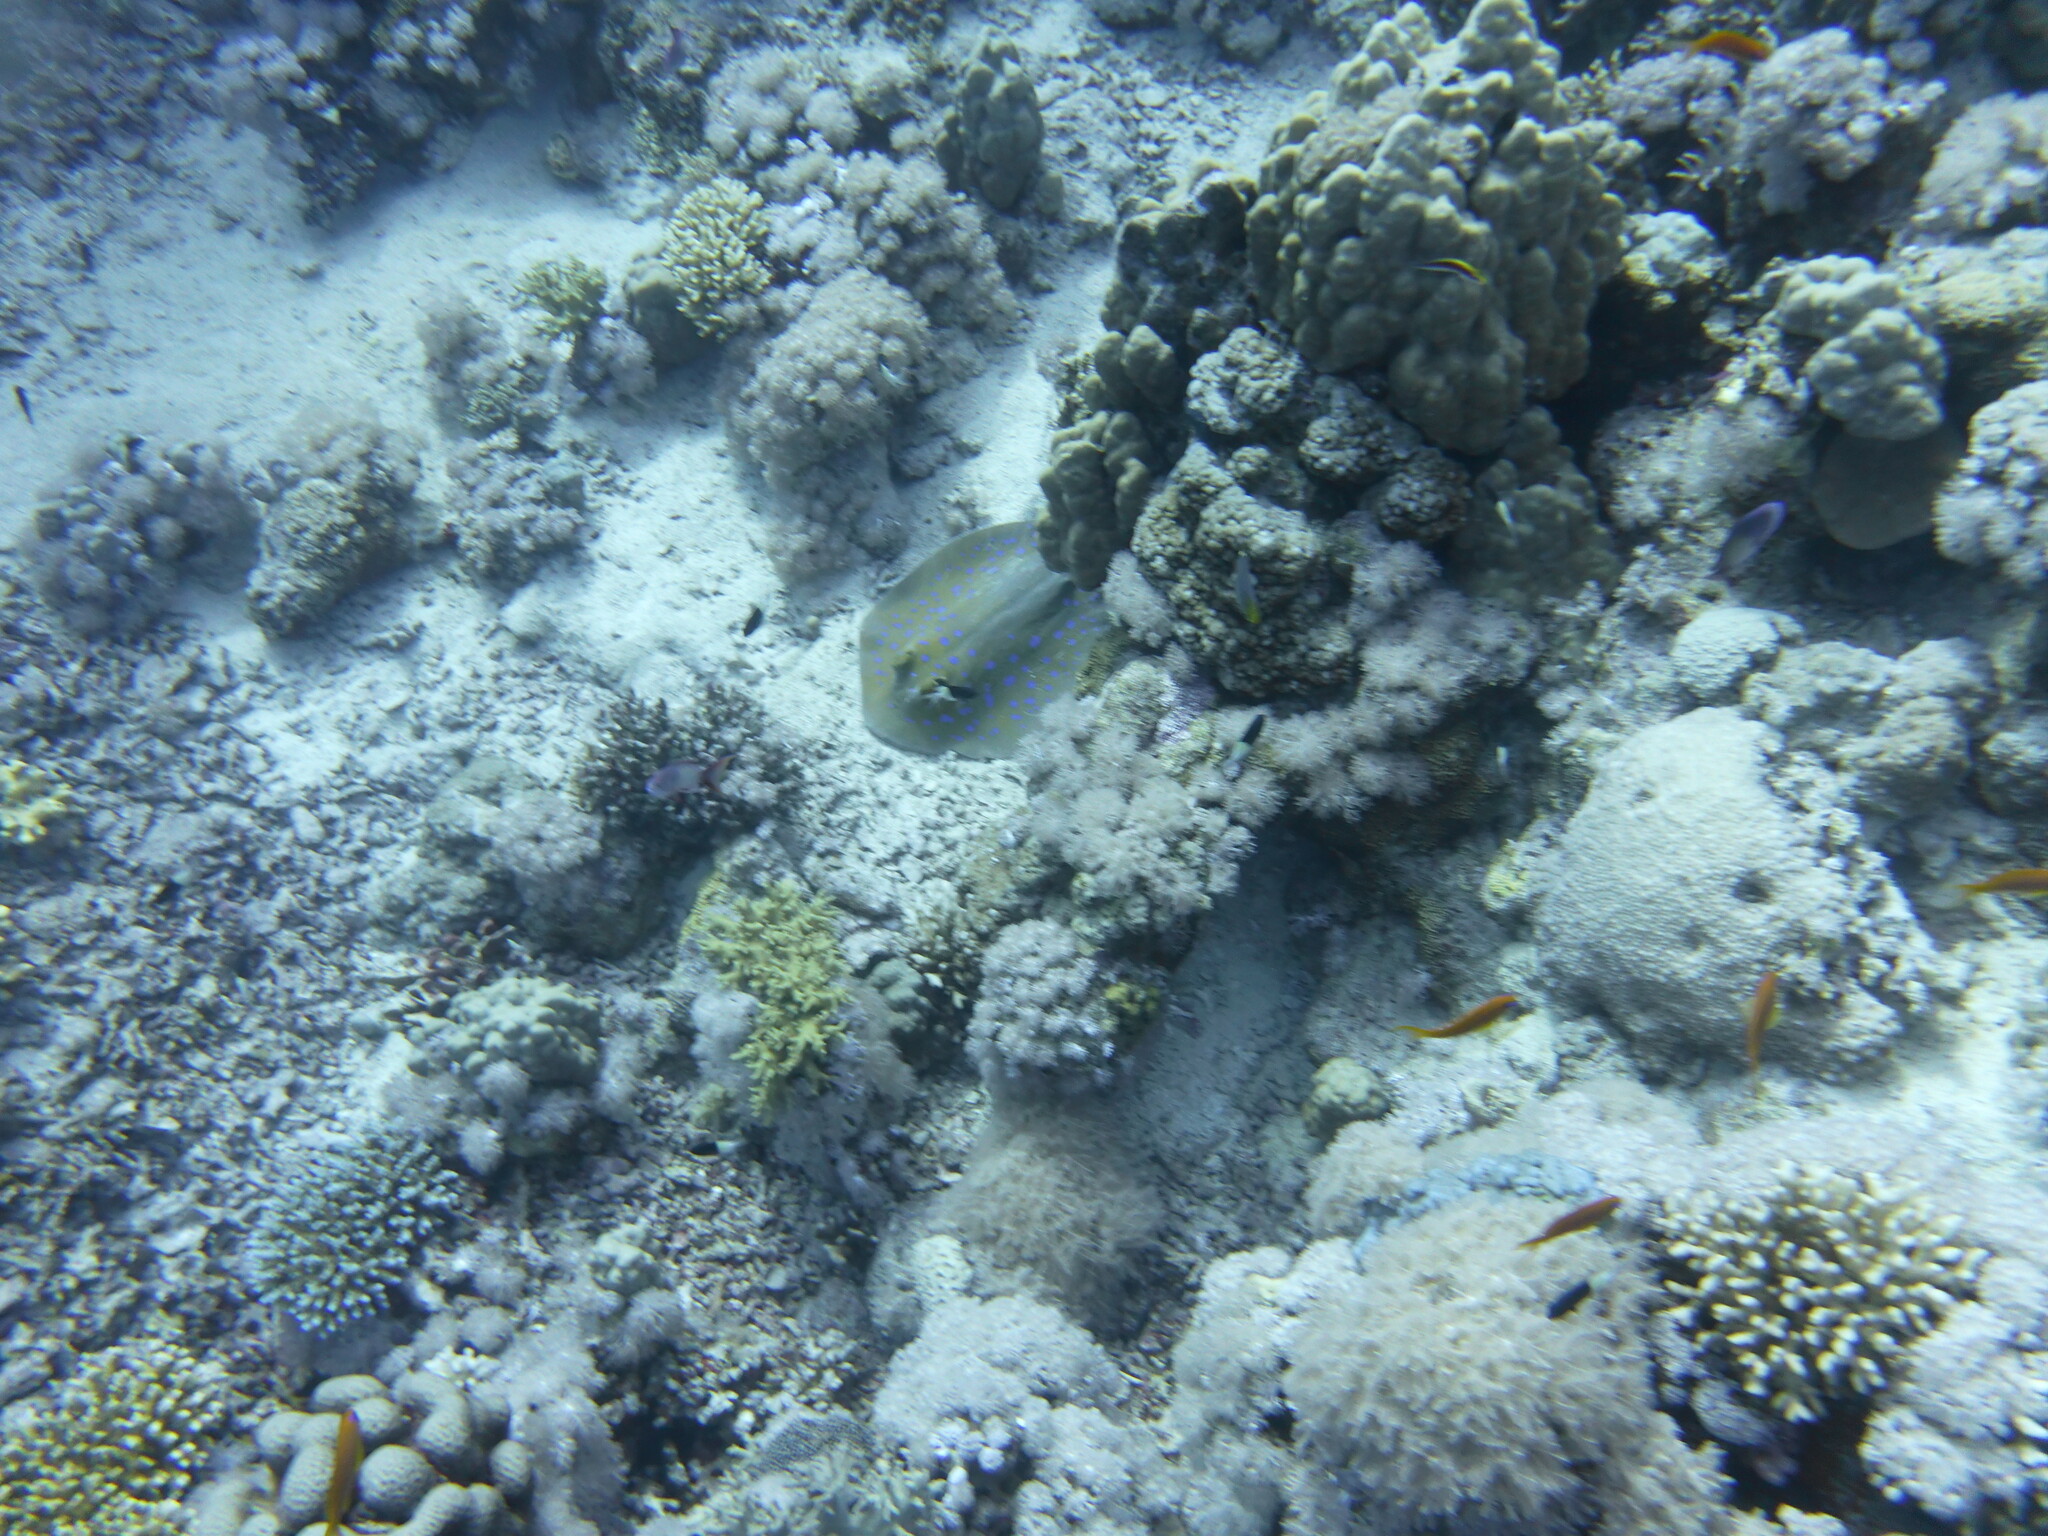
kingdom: Animalia
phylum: Chordata
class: Elasmobranchii
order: Myliobatiformes
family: Dasyatidae
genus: Taeniura
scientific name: Taeniura lymma
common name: Bluespotted ribbontail ray
